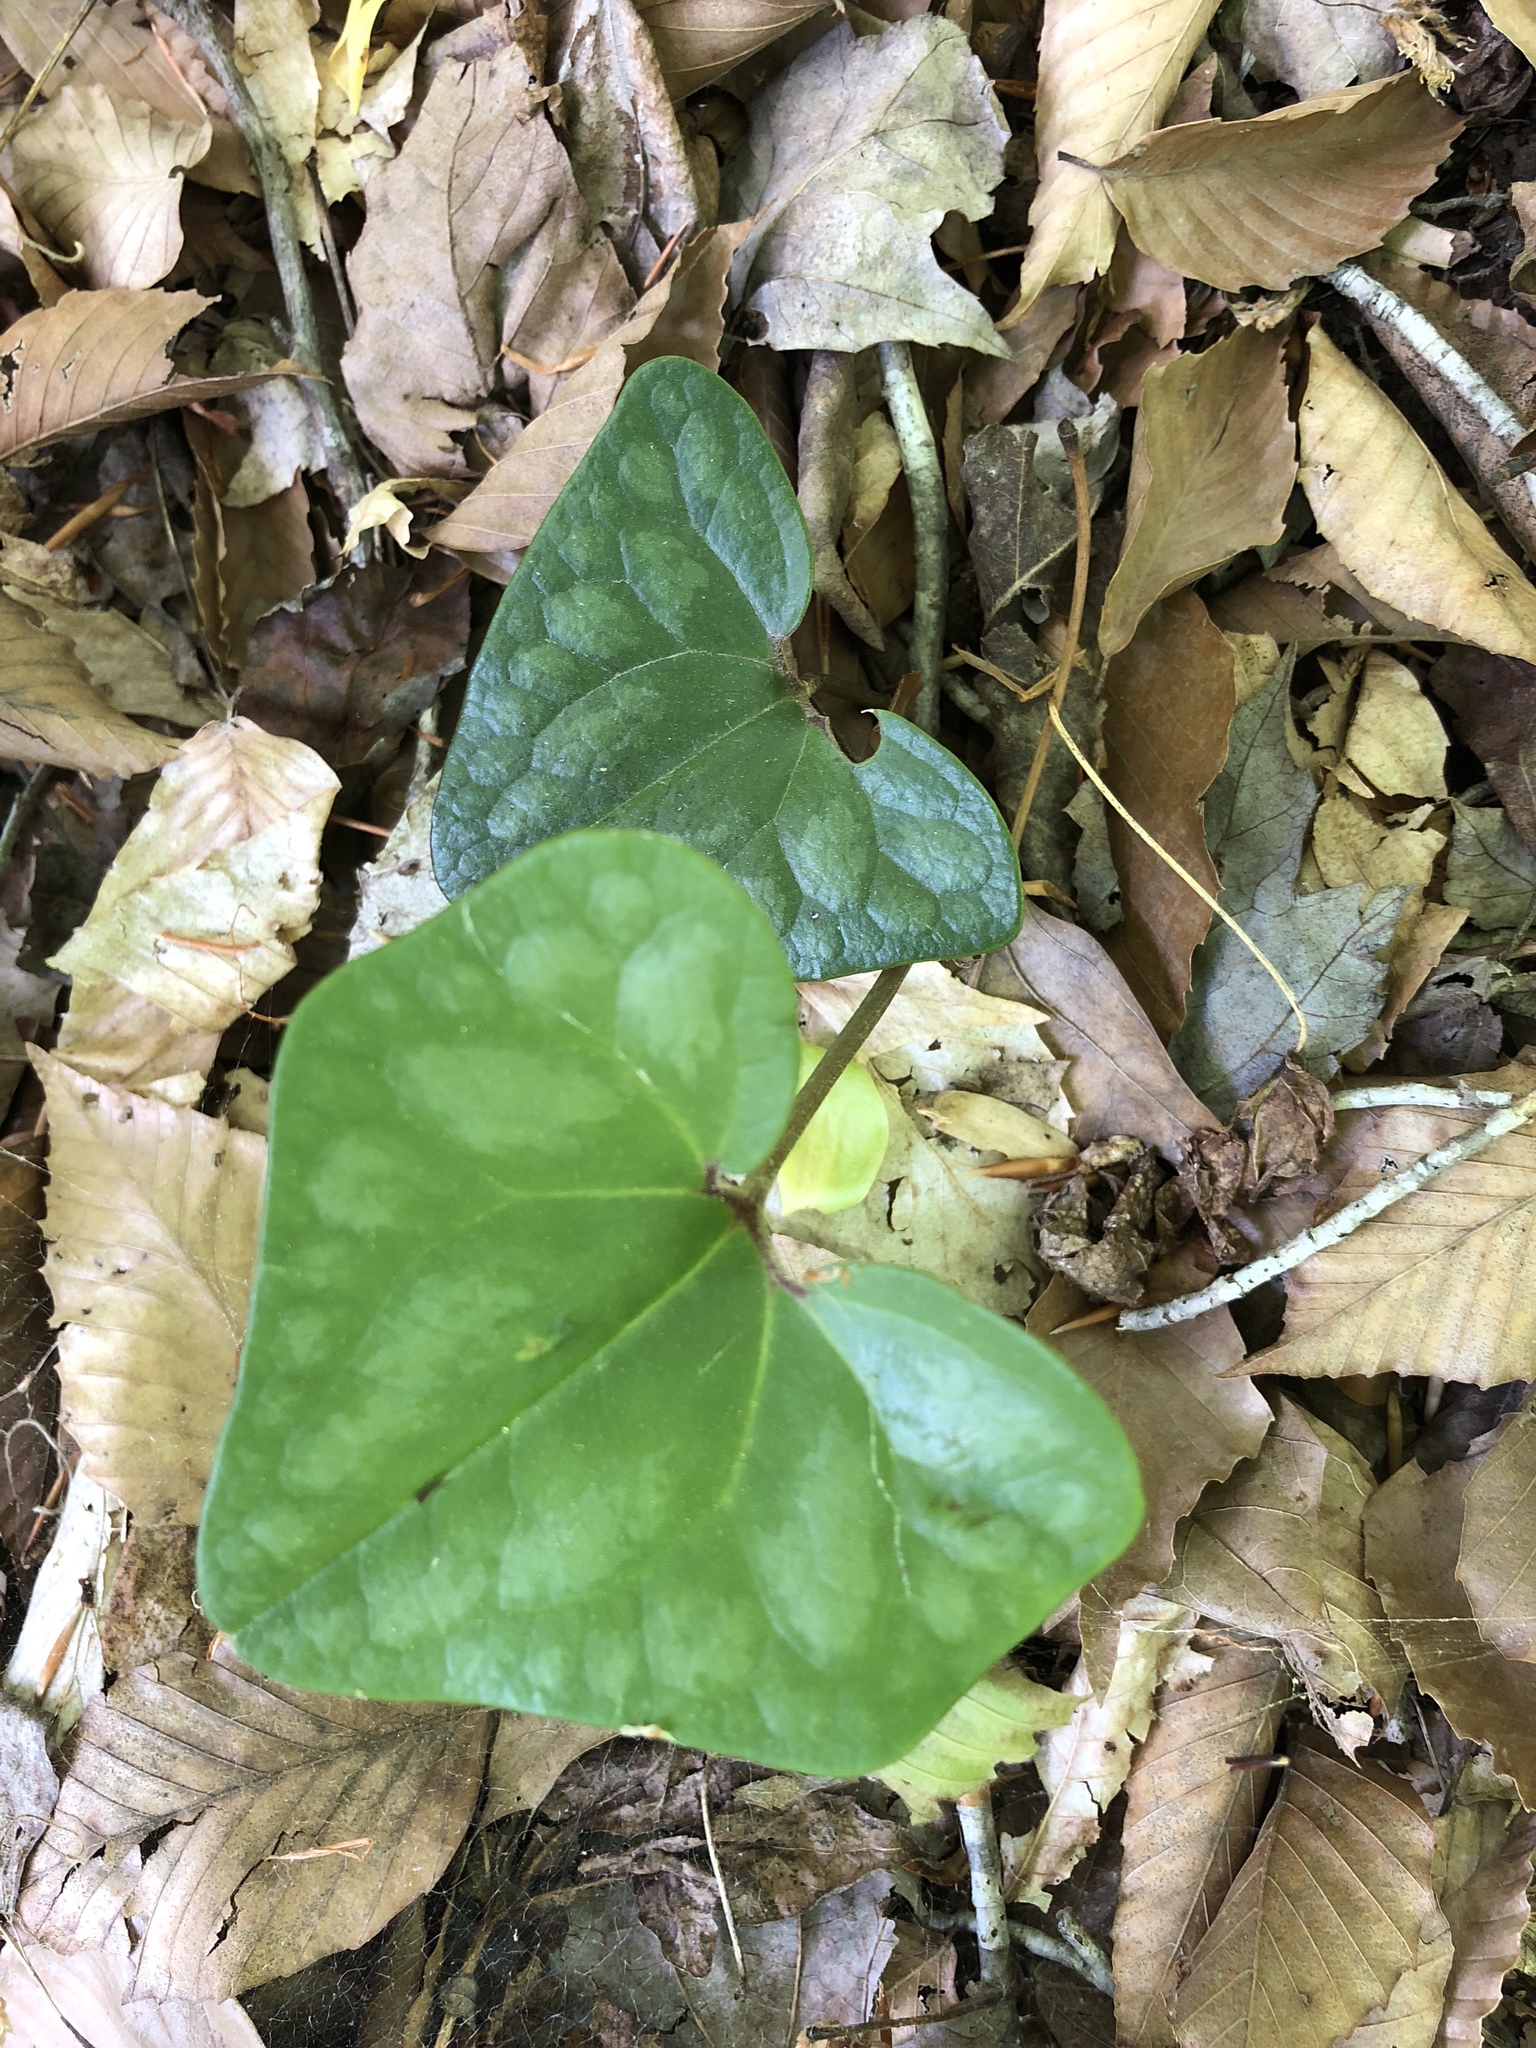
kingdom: Plantae
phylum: Tracheophyta
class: Magnoliopsida
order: Piperales
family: Aristolochiaceae
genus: Hexastylis
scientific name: Hexastylis arifolia
